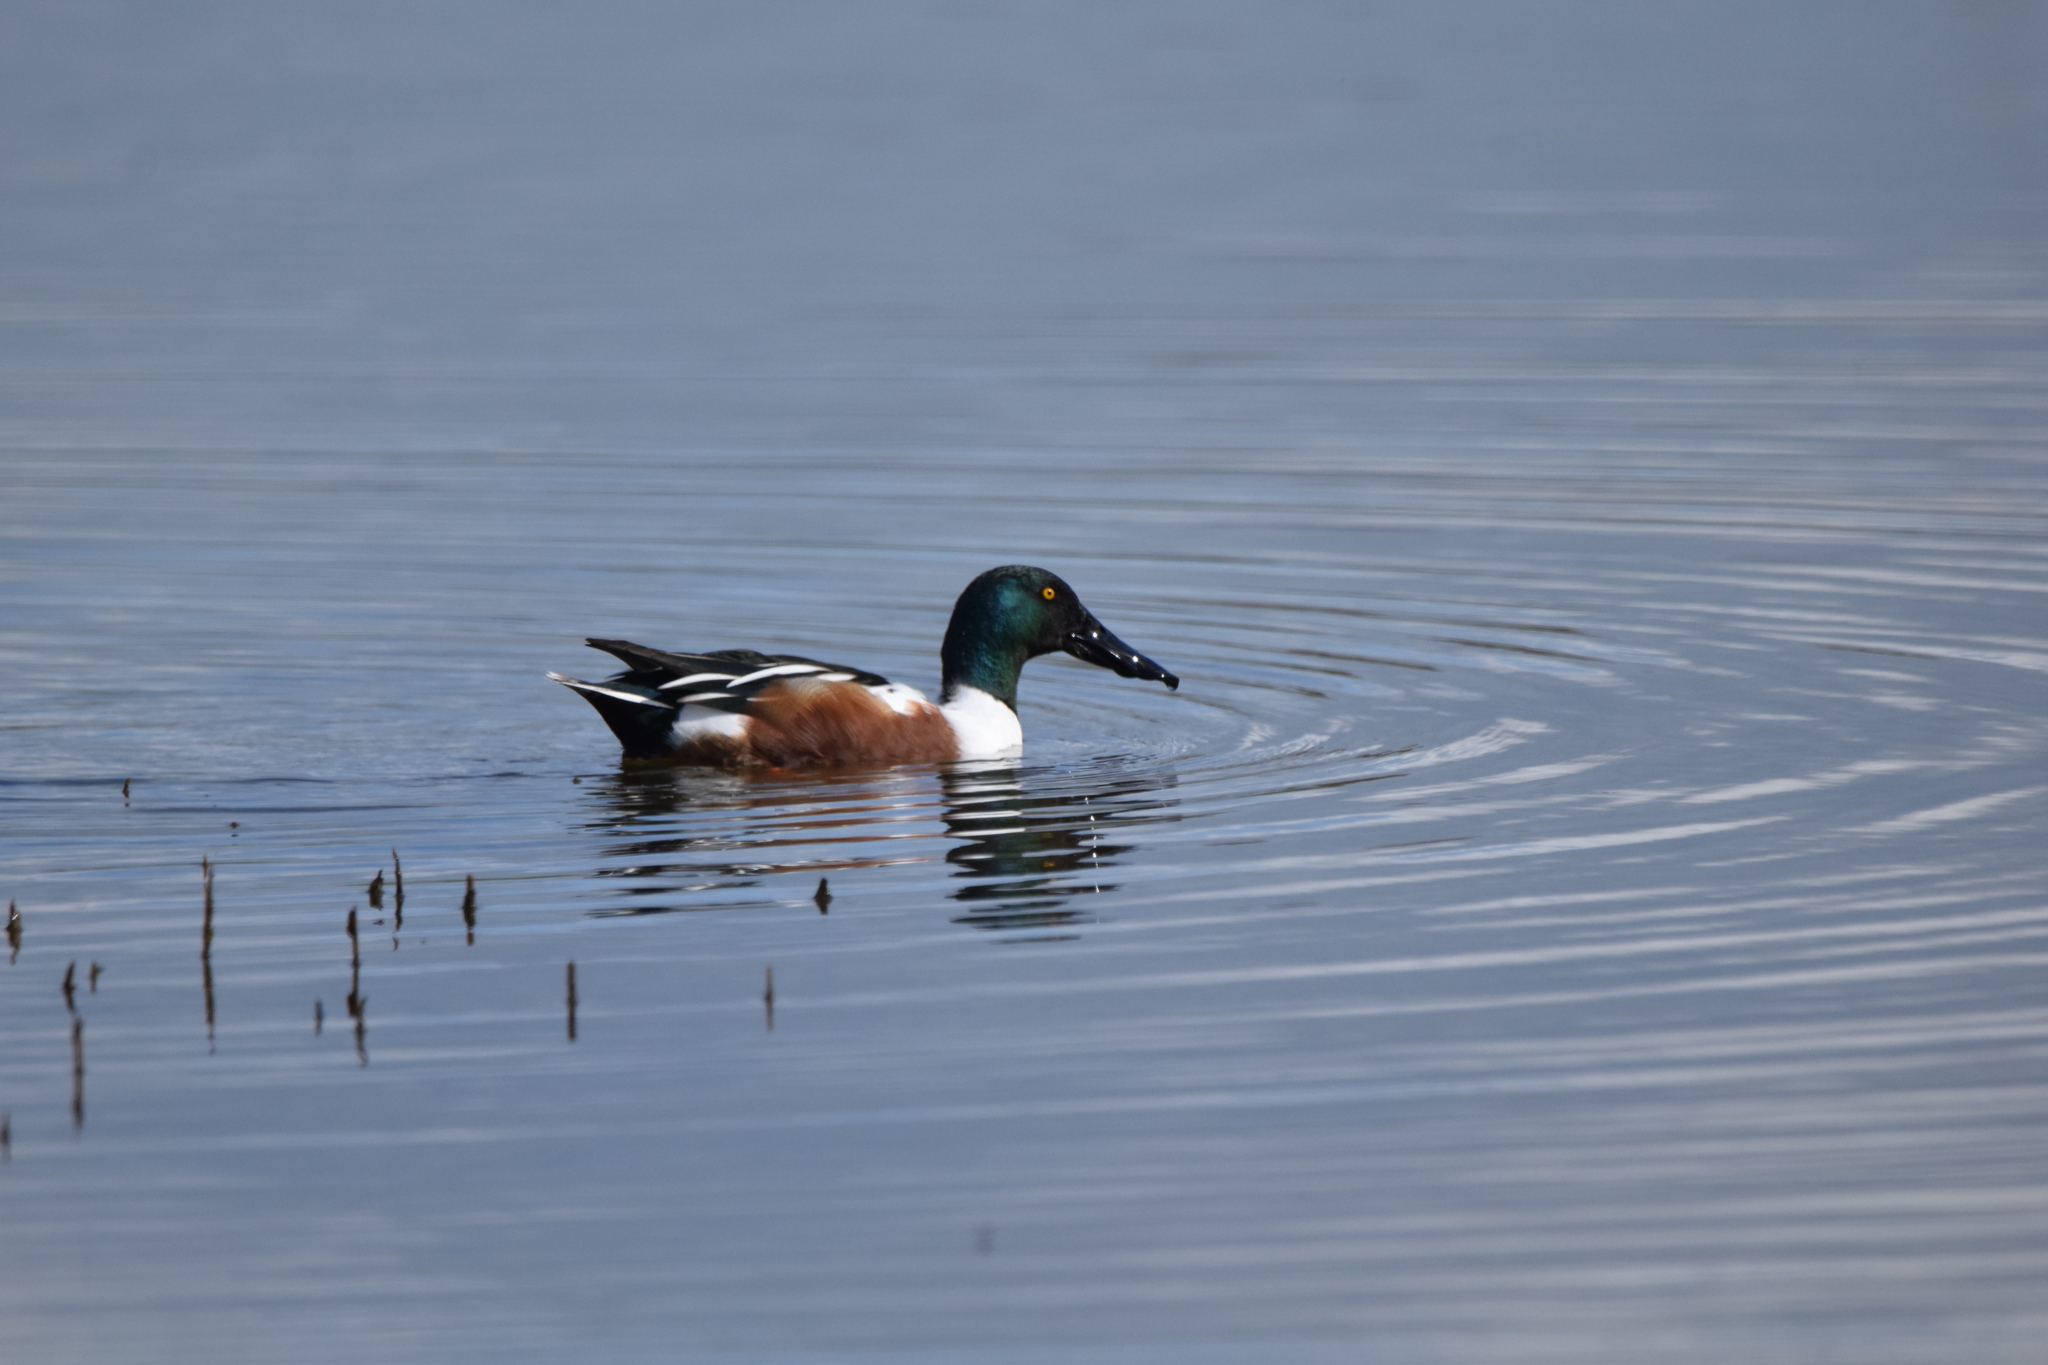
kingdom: Animalia
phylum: Chordata
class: Aves
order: Anseriformes
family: Anatidae
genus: Spatula
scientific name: Spatula clypeata
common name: Northern shoveler
